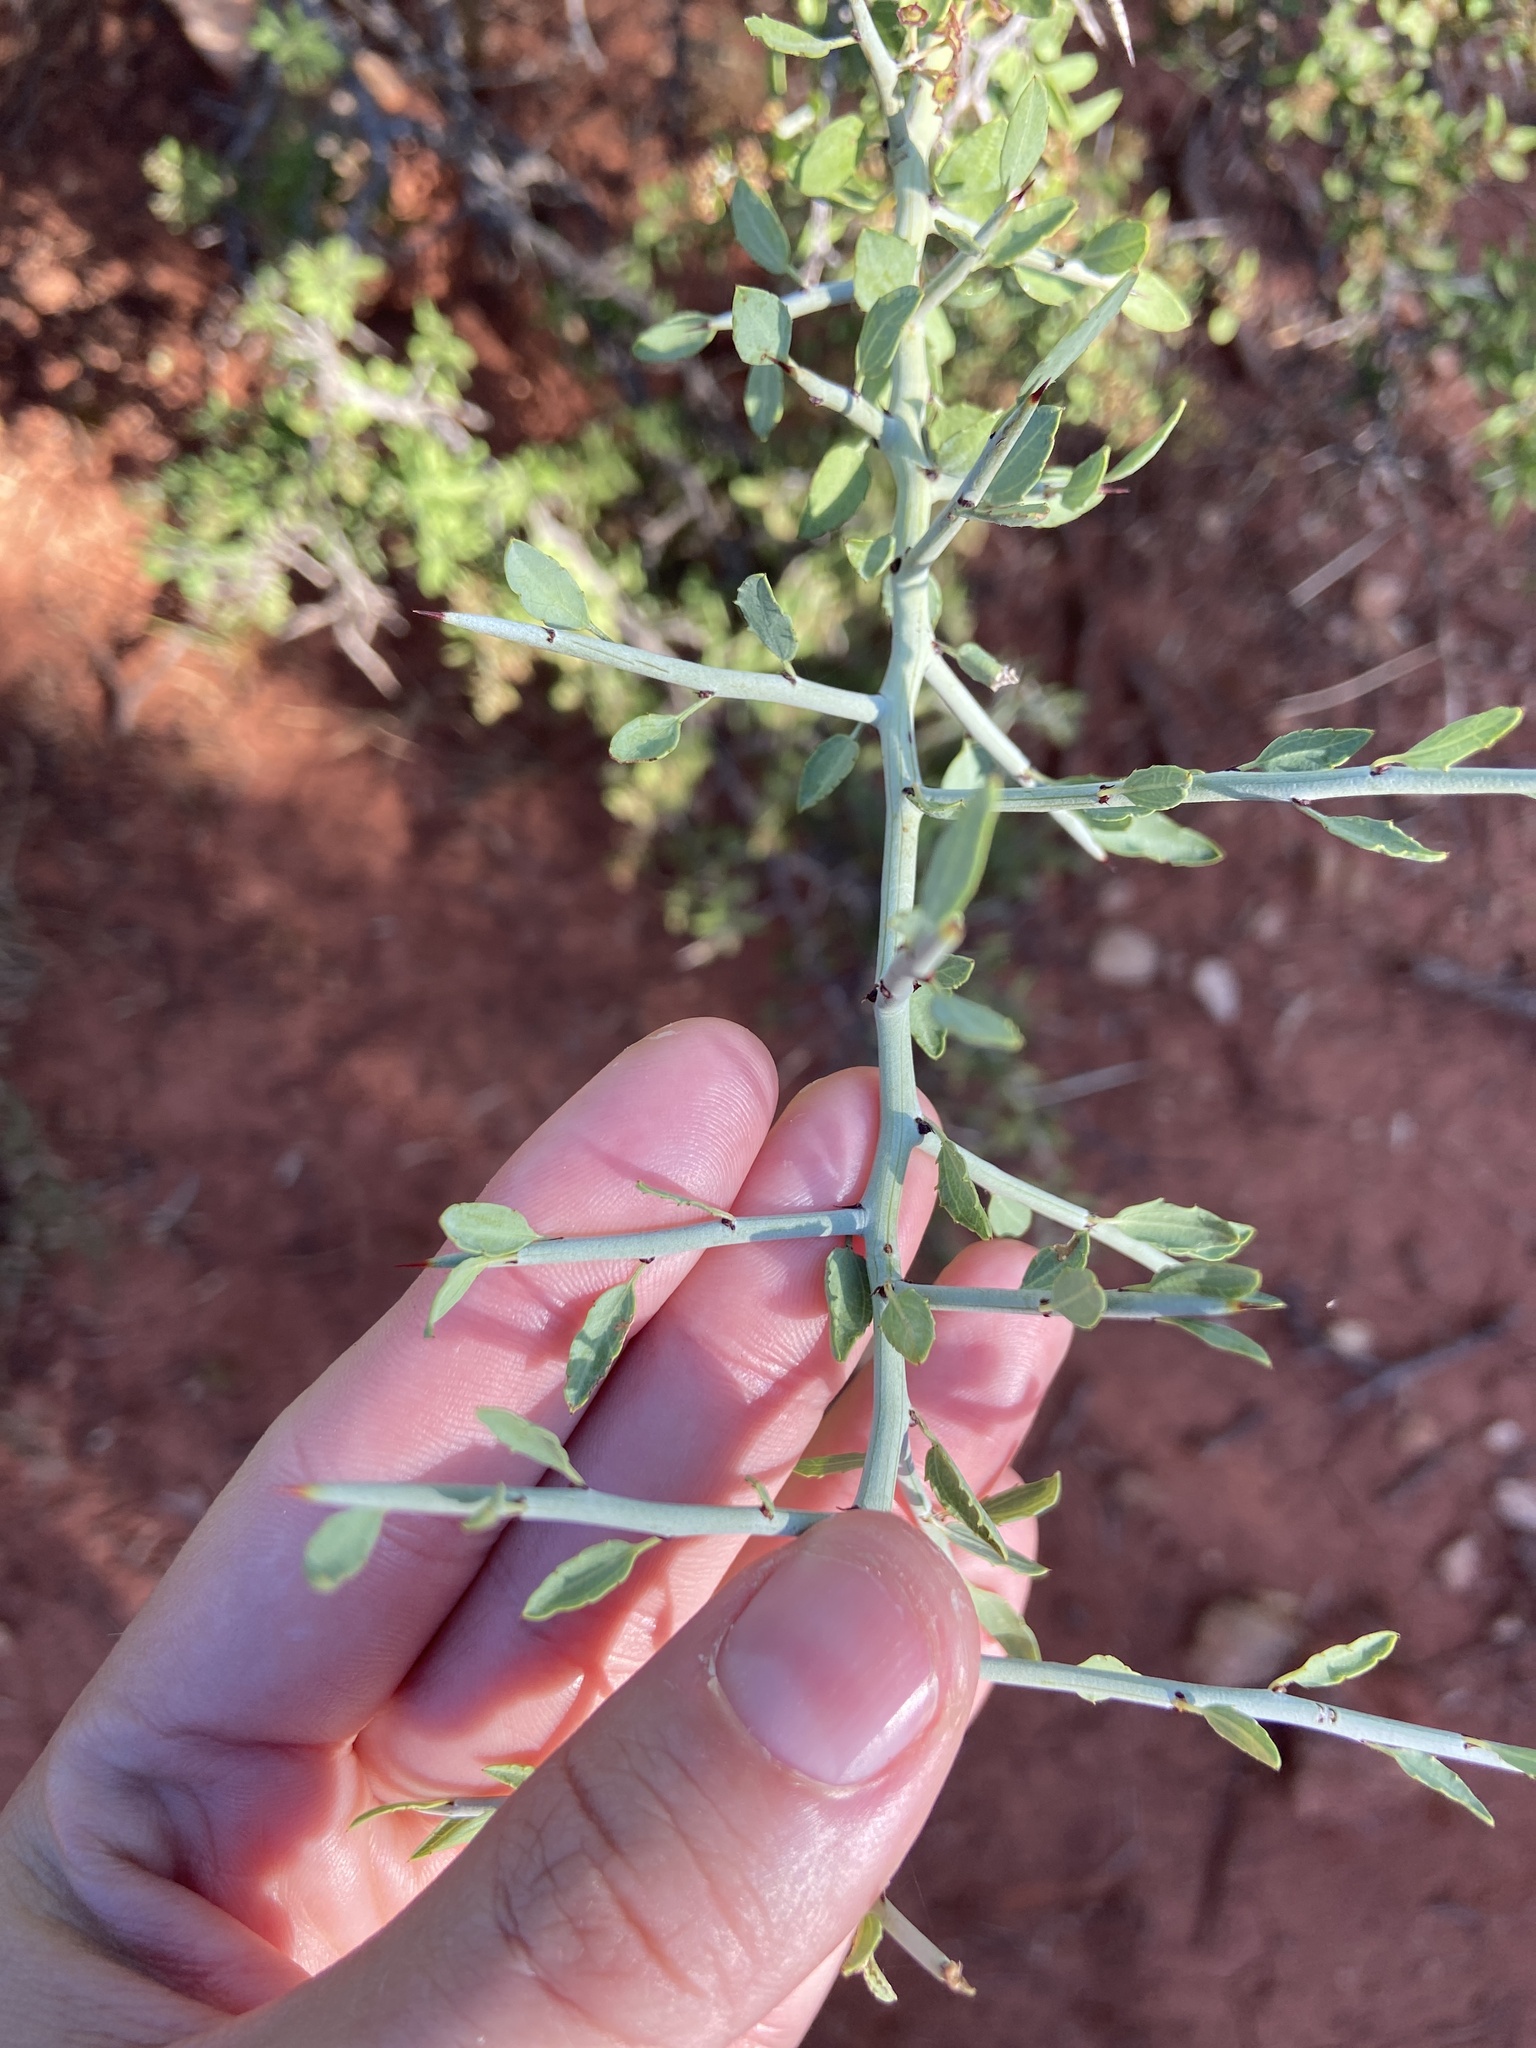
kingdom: Plantae
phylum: Tracheophyta
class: Magnoliopsida
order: Rosales
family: Rhamnaceae
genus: Sarcomphalus
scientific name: Sarcomphalus obtusifolius
